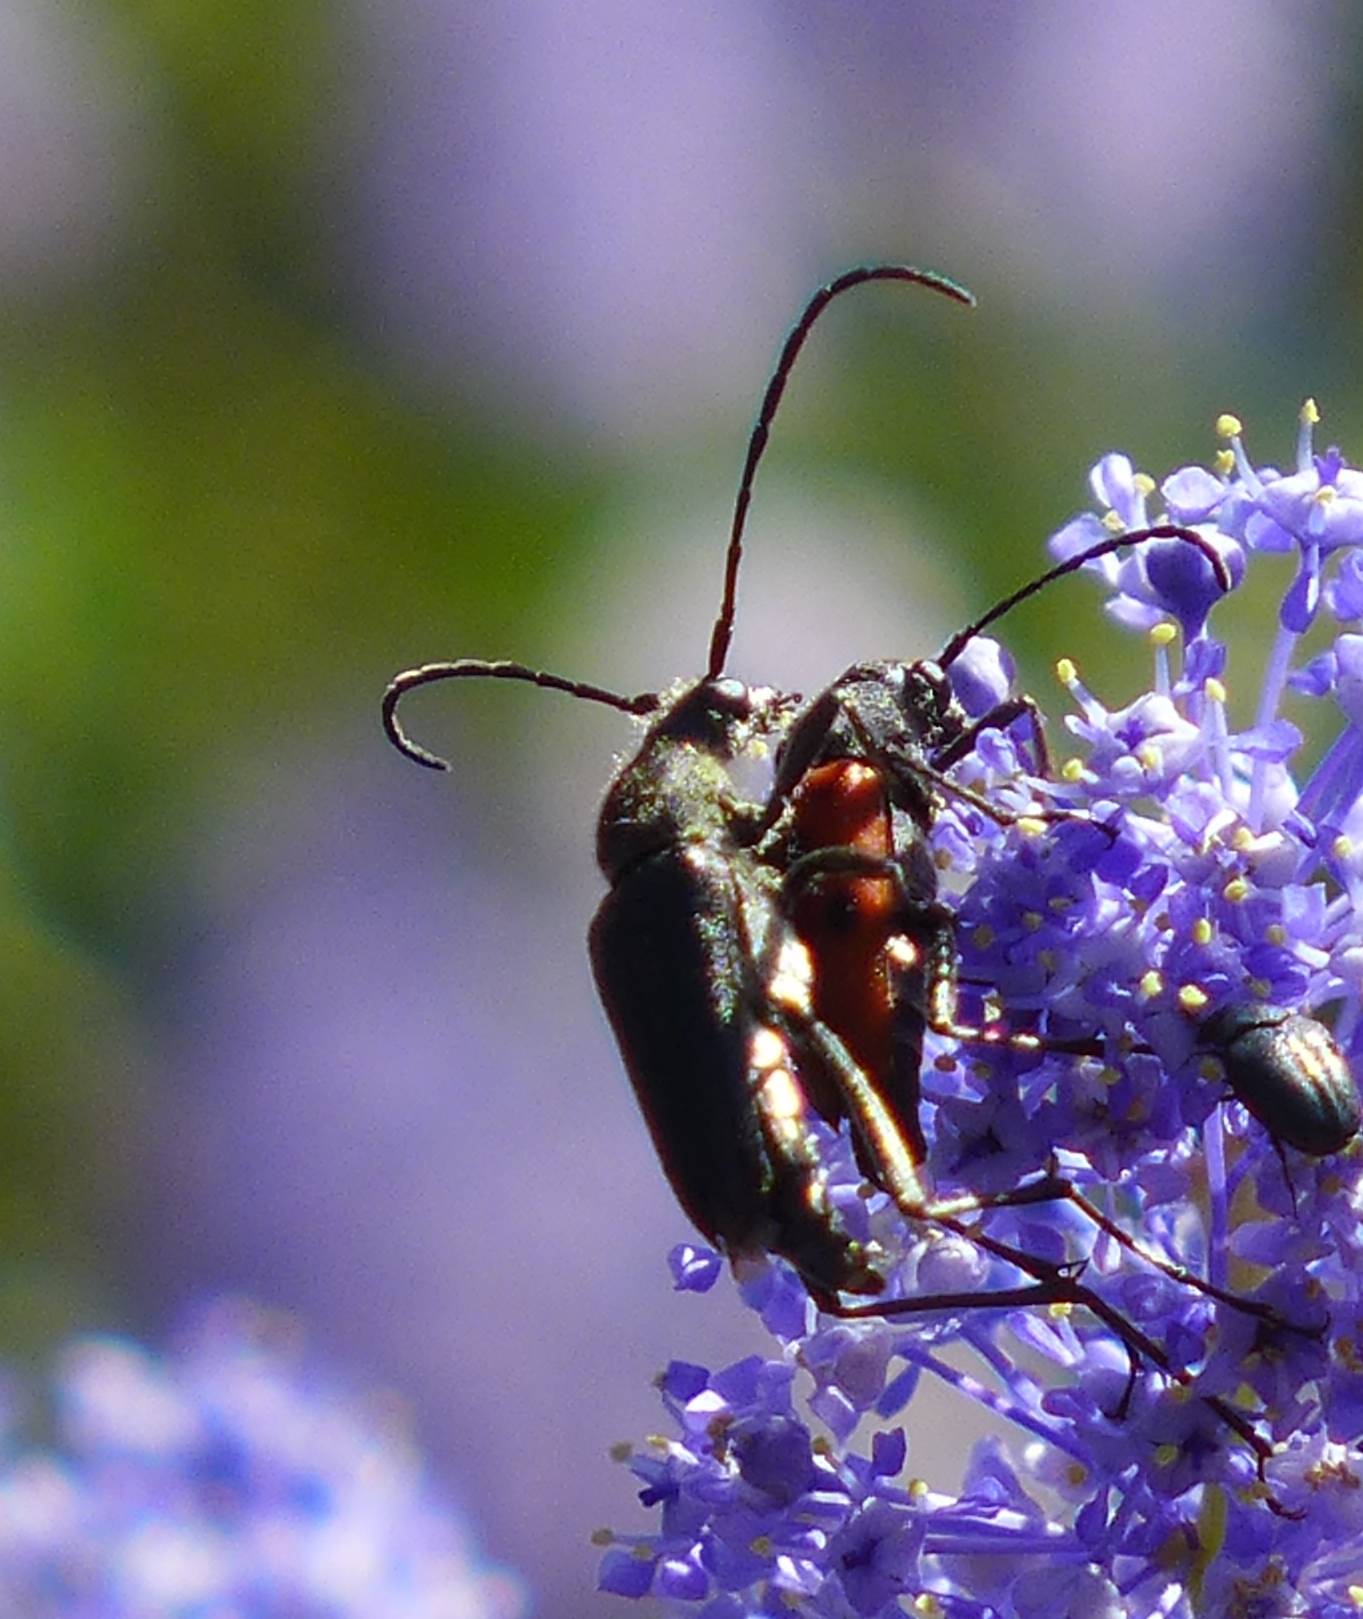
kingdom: Animalia
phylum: Arthropoda
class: Insecta
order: Coleoptera
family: Cerambycidae
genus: Anastrangalia
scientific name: Anastrangalia laetifica
